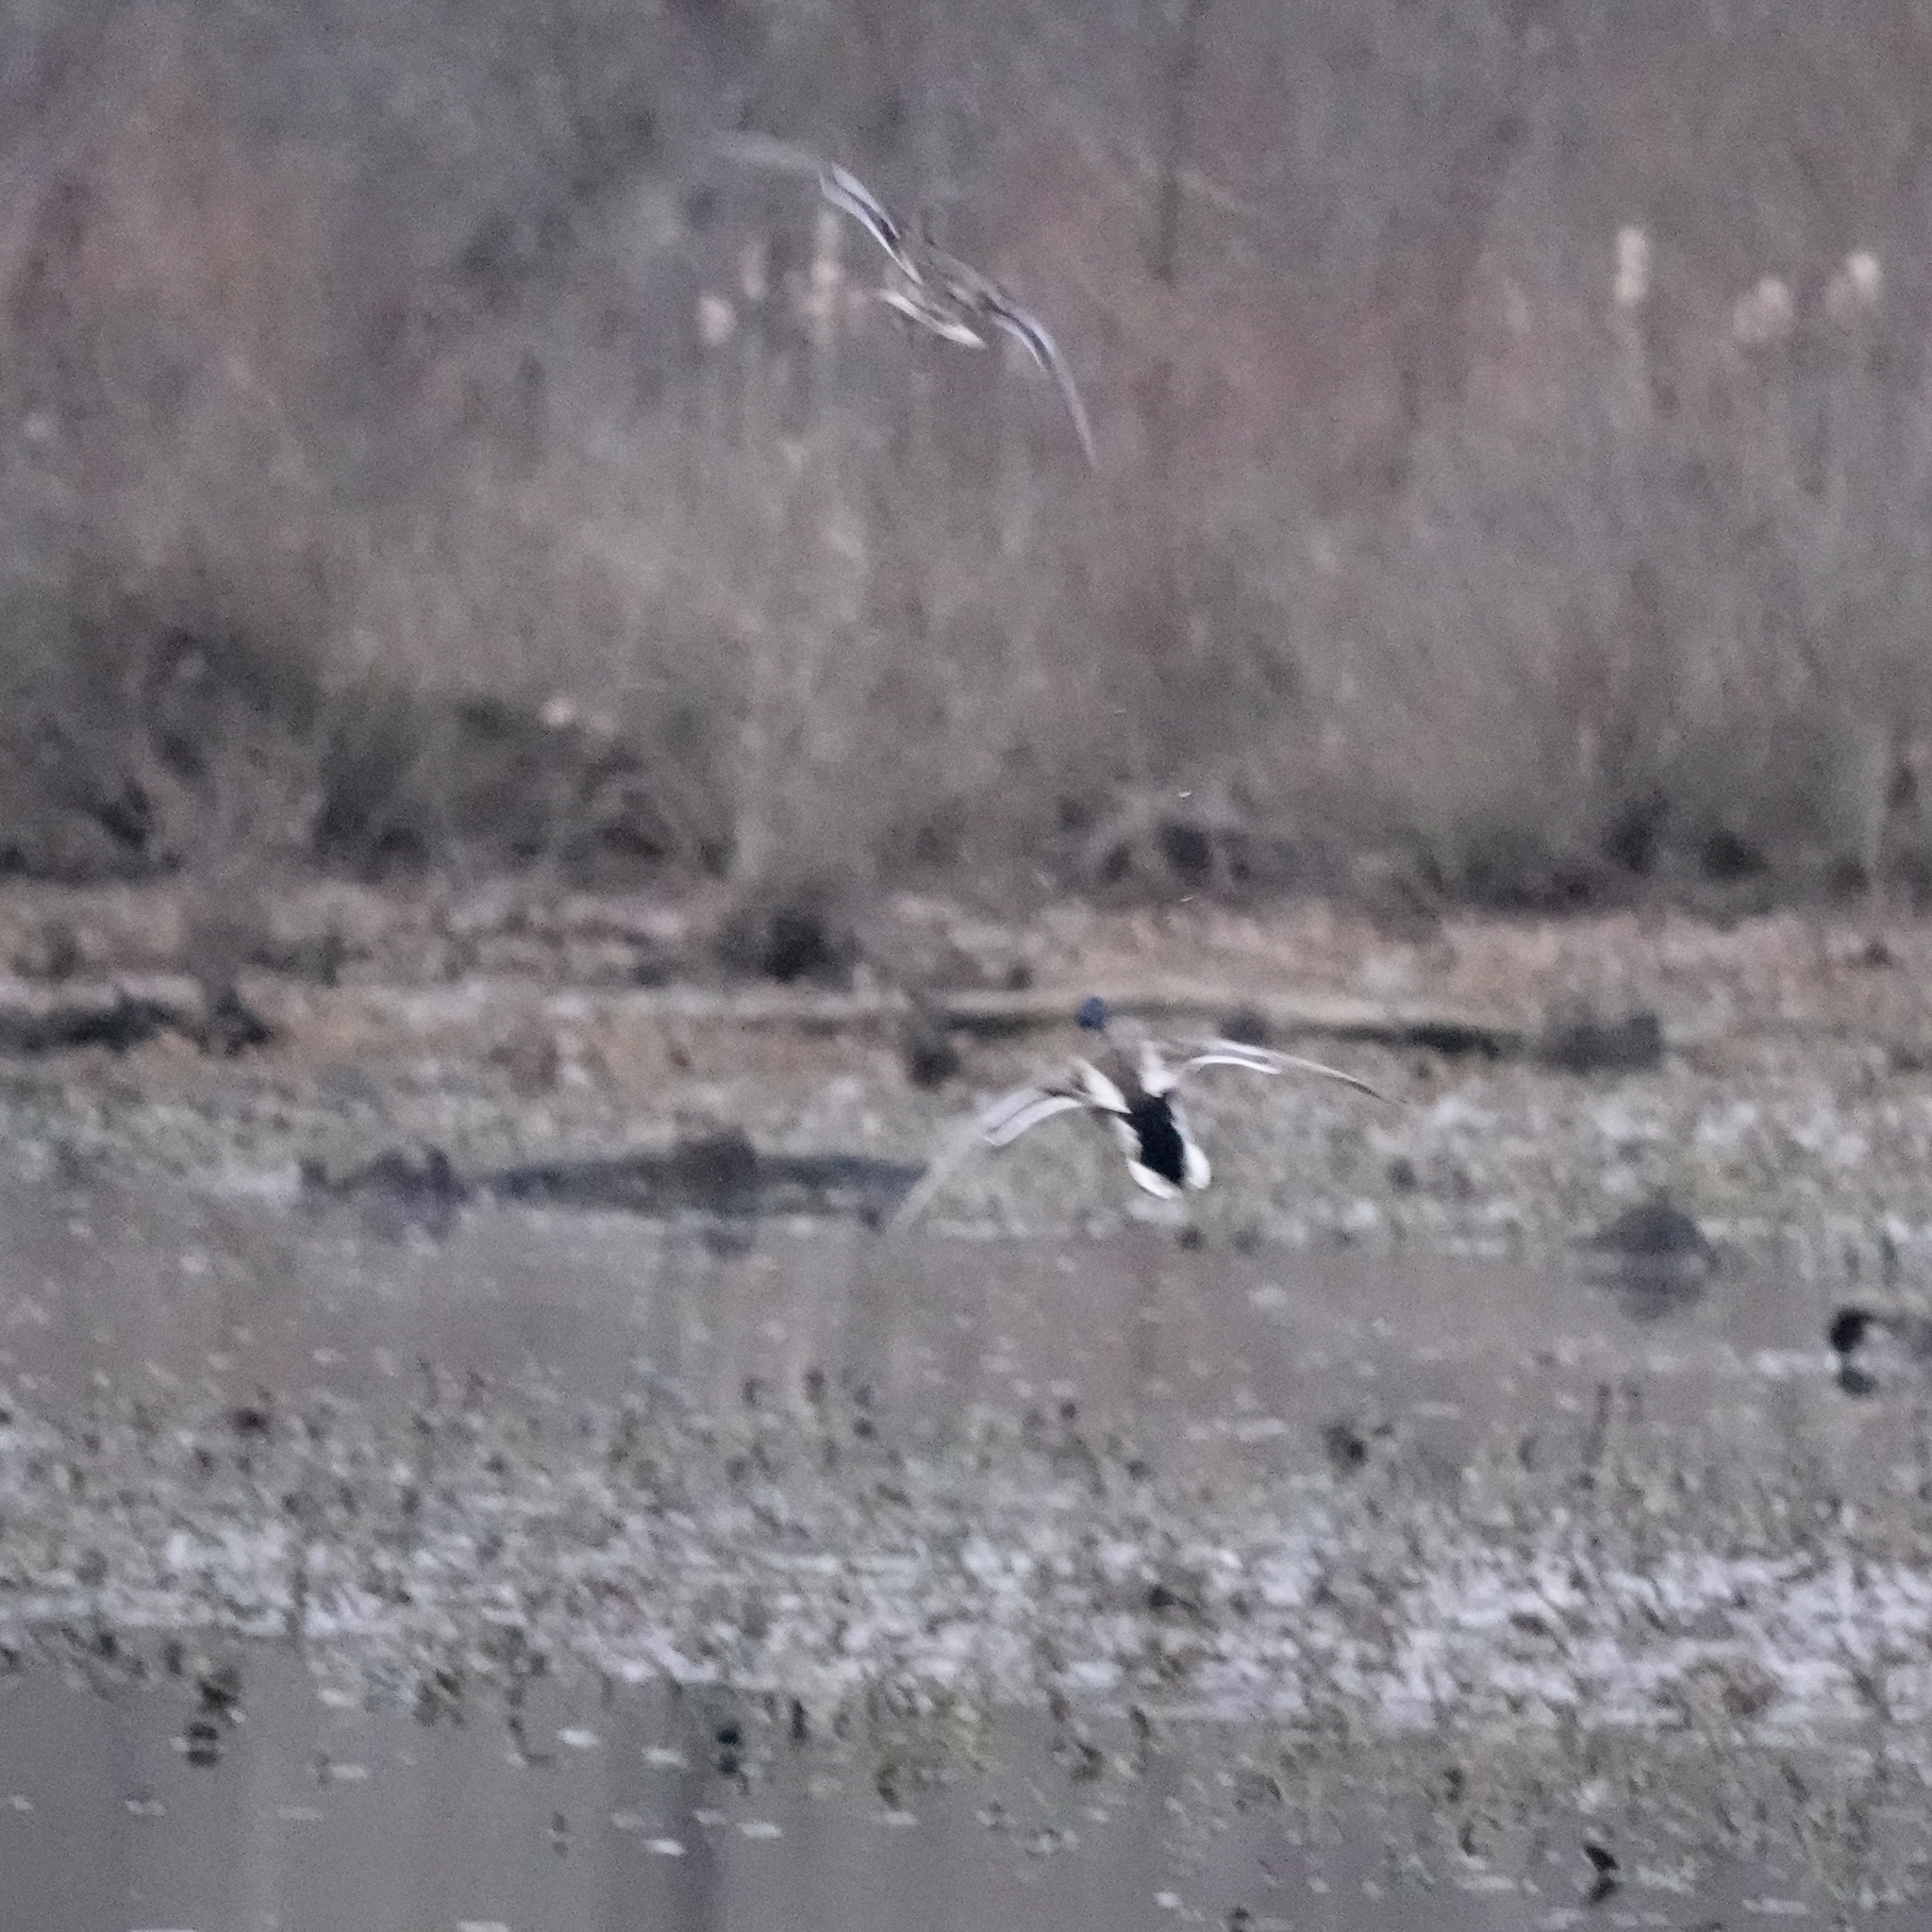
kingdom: Animalia
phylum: Chordata
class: Aves
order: Anseriformes
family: Anatidae
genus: Anas
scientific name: Anas platyrhynchos
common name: Mallard
